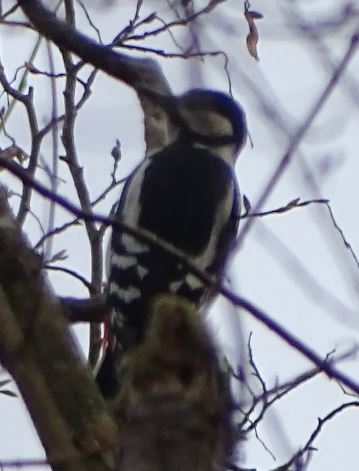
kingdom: Animalia
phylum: Chordata
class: Aves
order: Piciformes
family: Picidae
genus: Dendrocopos
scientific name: Dendrocopos major
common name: Great spotted woodpecker
